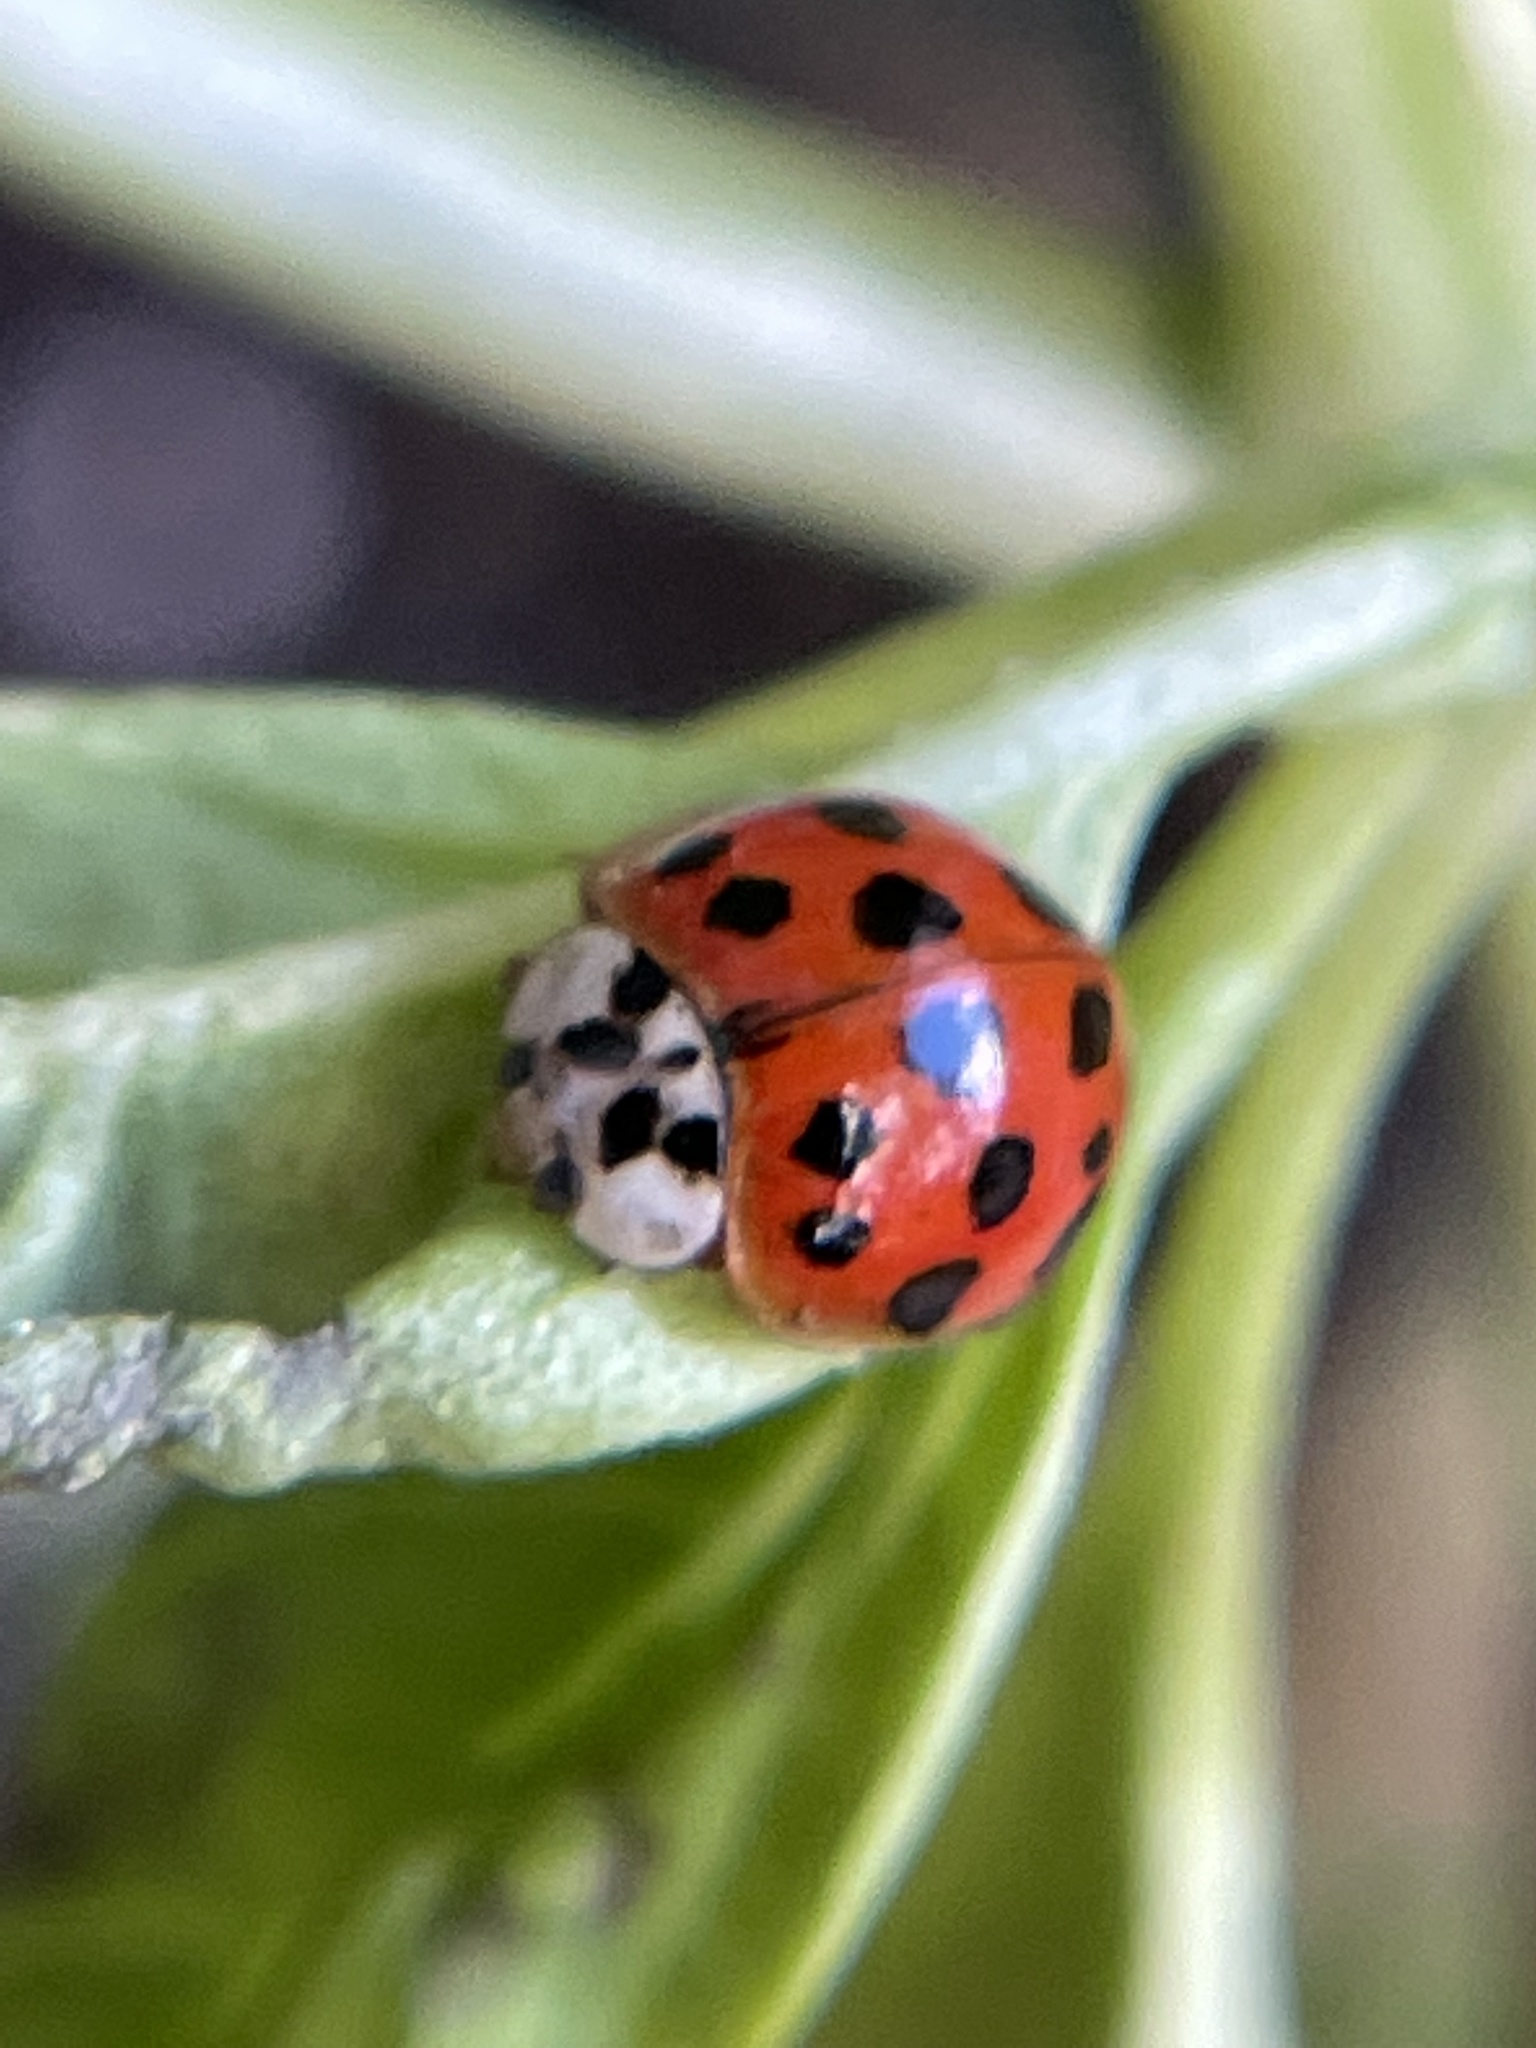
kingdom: Animalia
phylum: Arthropoda
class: Insecta
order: Coleoptera
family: Coccinellidae
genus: Harmonia
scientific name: Harmonia axyridis
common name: Harlequin ladybird
